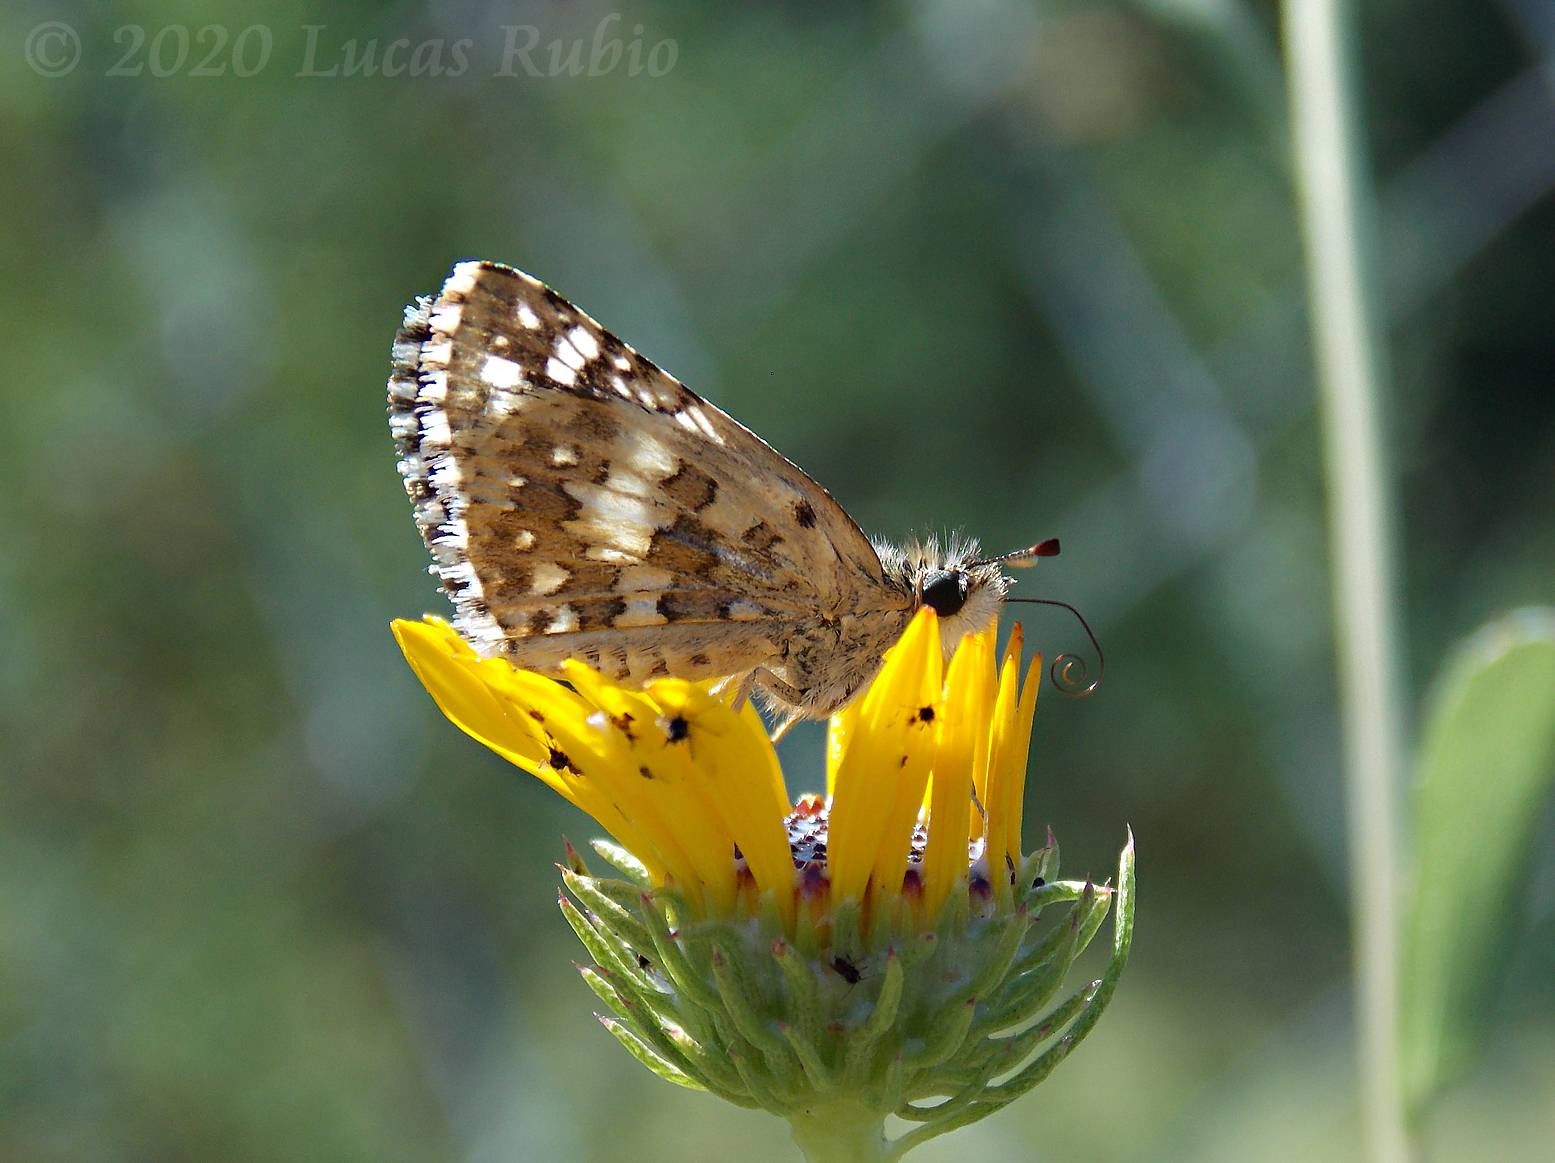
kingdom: Animalia
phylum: Arthropoda
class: Insecta
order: Lepidoptera
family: Hesperiidae
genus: Burnsius
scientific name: Burnsius orcynoides
